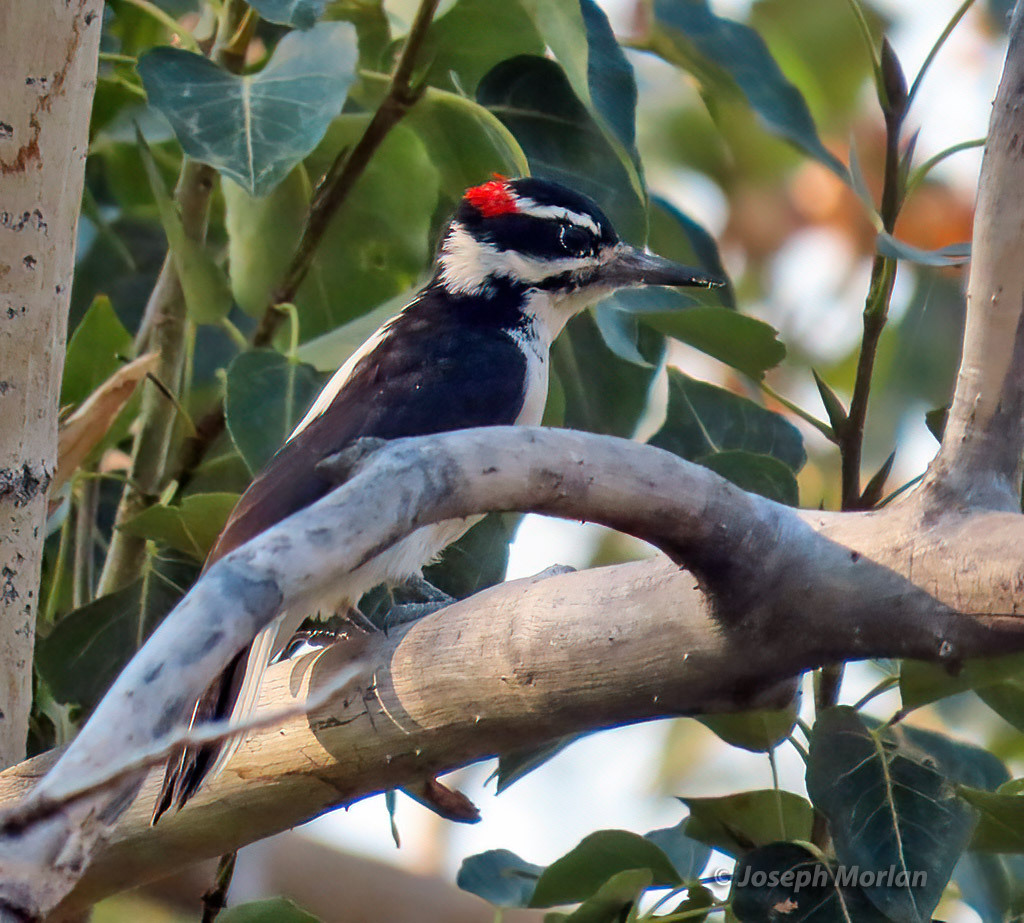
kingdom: Animalia
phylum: Chordata
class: Aves
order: Piciformes
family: Picidae
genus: Leuconotopicus
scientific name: Leuconotopicus villosus
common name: Hairy woodpecker
